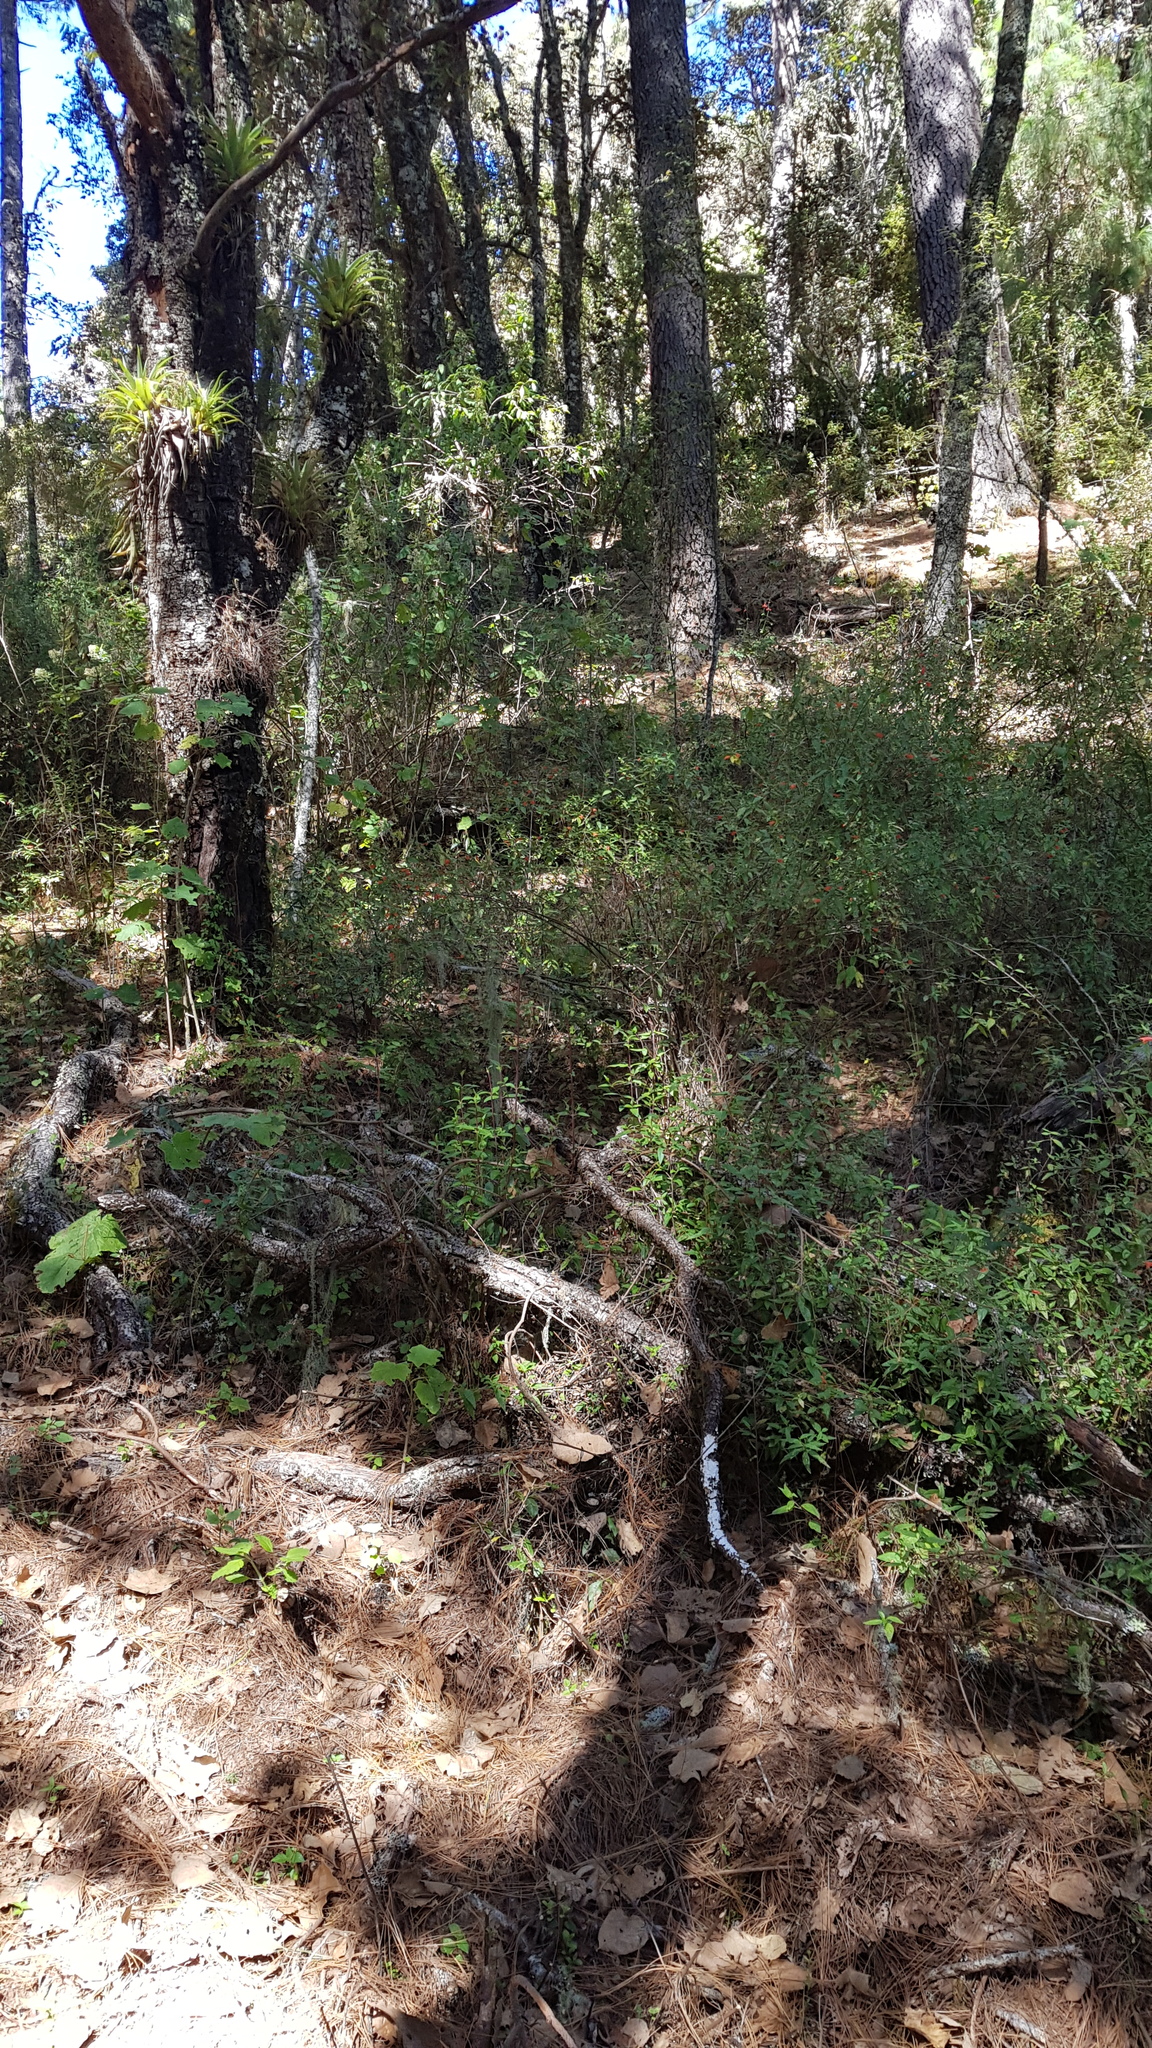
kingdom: Plantae
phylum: Tracheophyta
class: Magnoliopsida
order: Lamiales
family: Lamiaceae
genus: Clinopodium
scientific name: Clinopodium macrostemum
